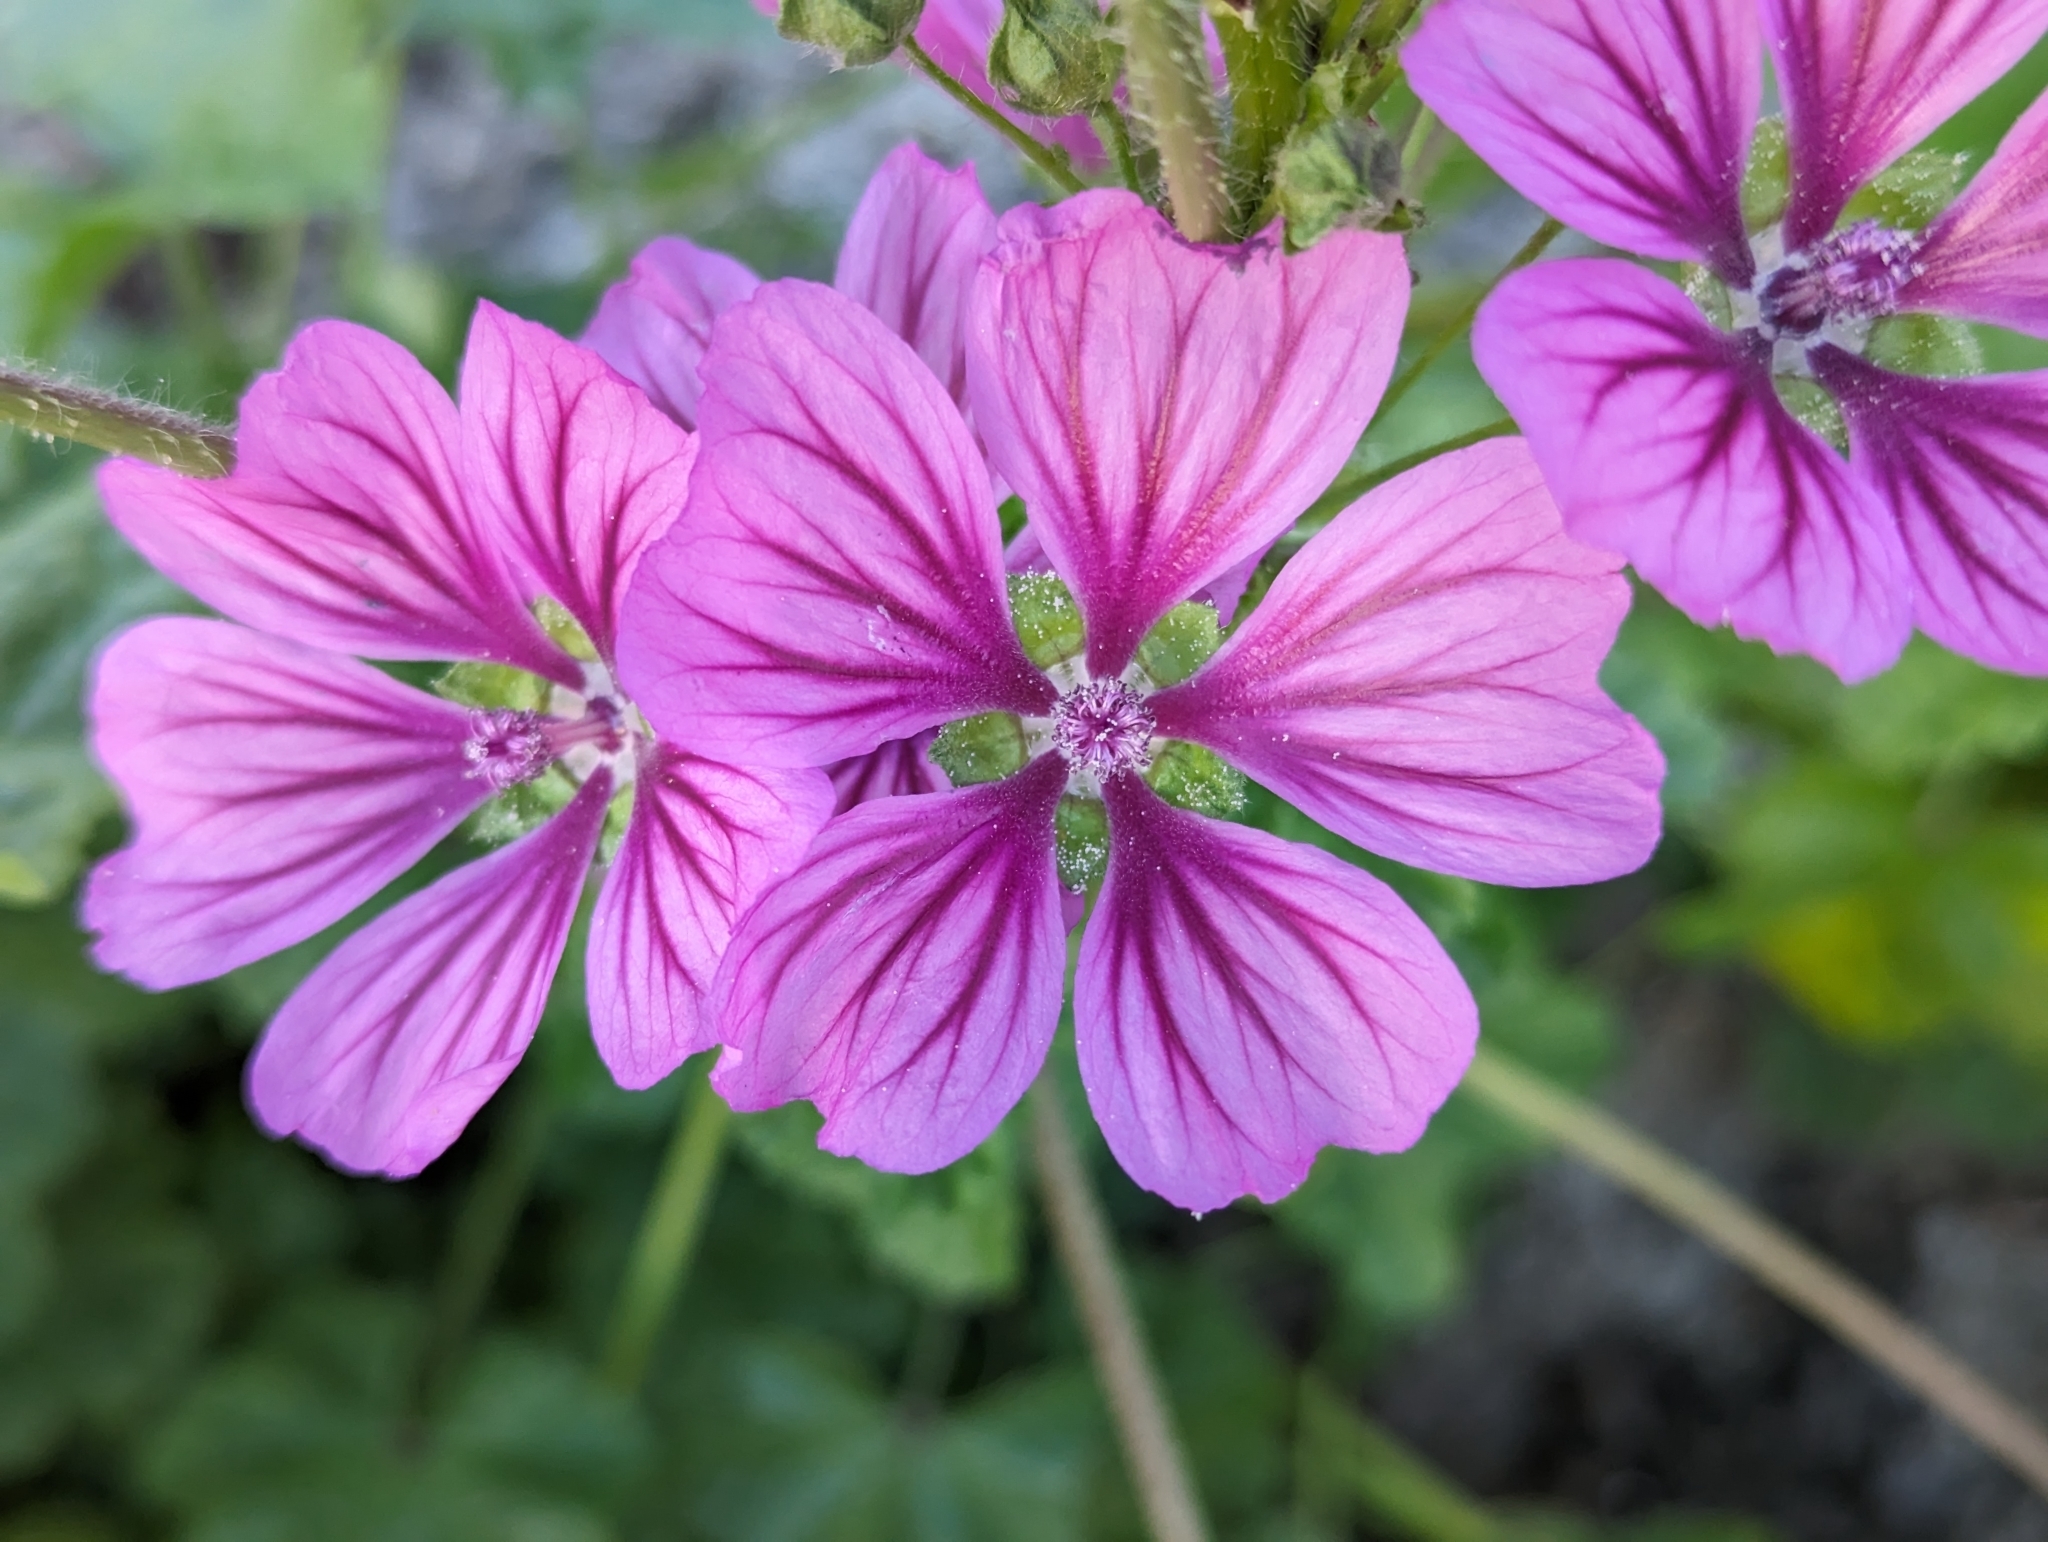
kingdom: Plantae
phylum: Tracheophyta
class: Magnoliopsida
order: Malvales
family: Malvaceae
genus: Malva
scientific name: Malva sylvestris
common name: Common mallow
